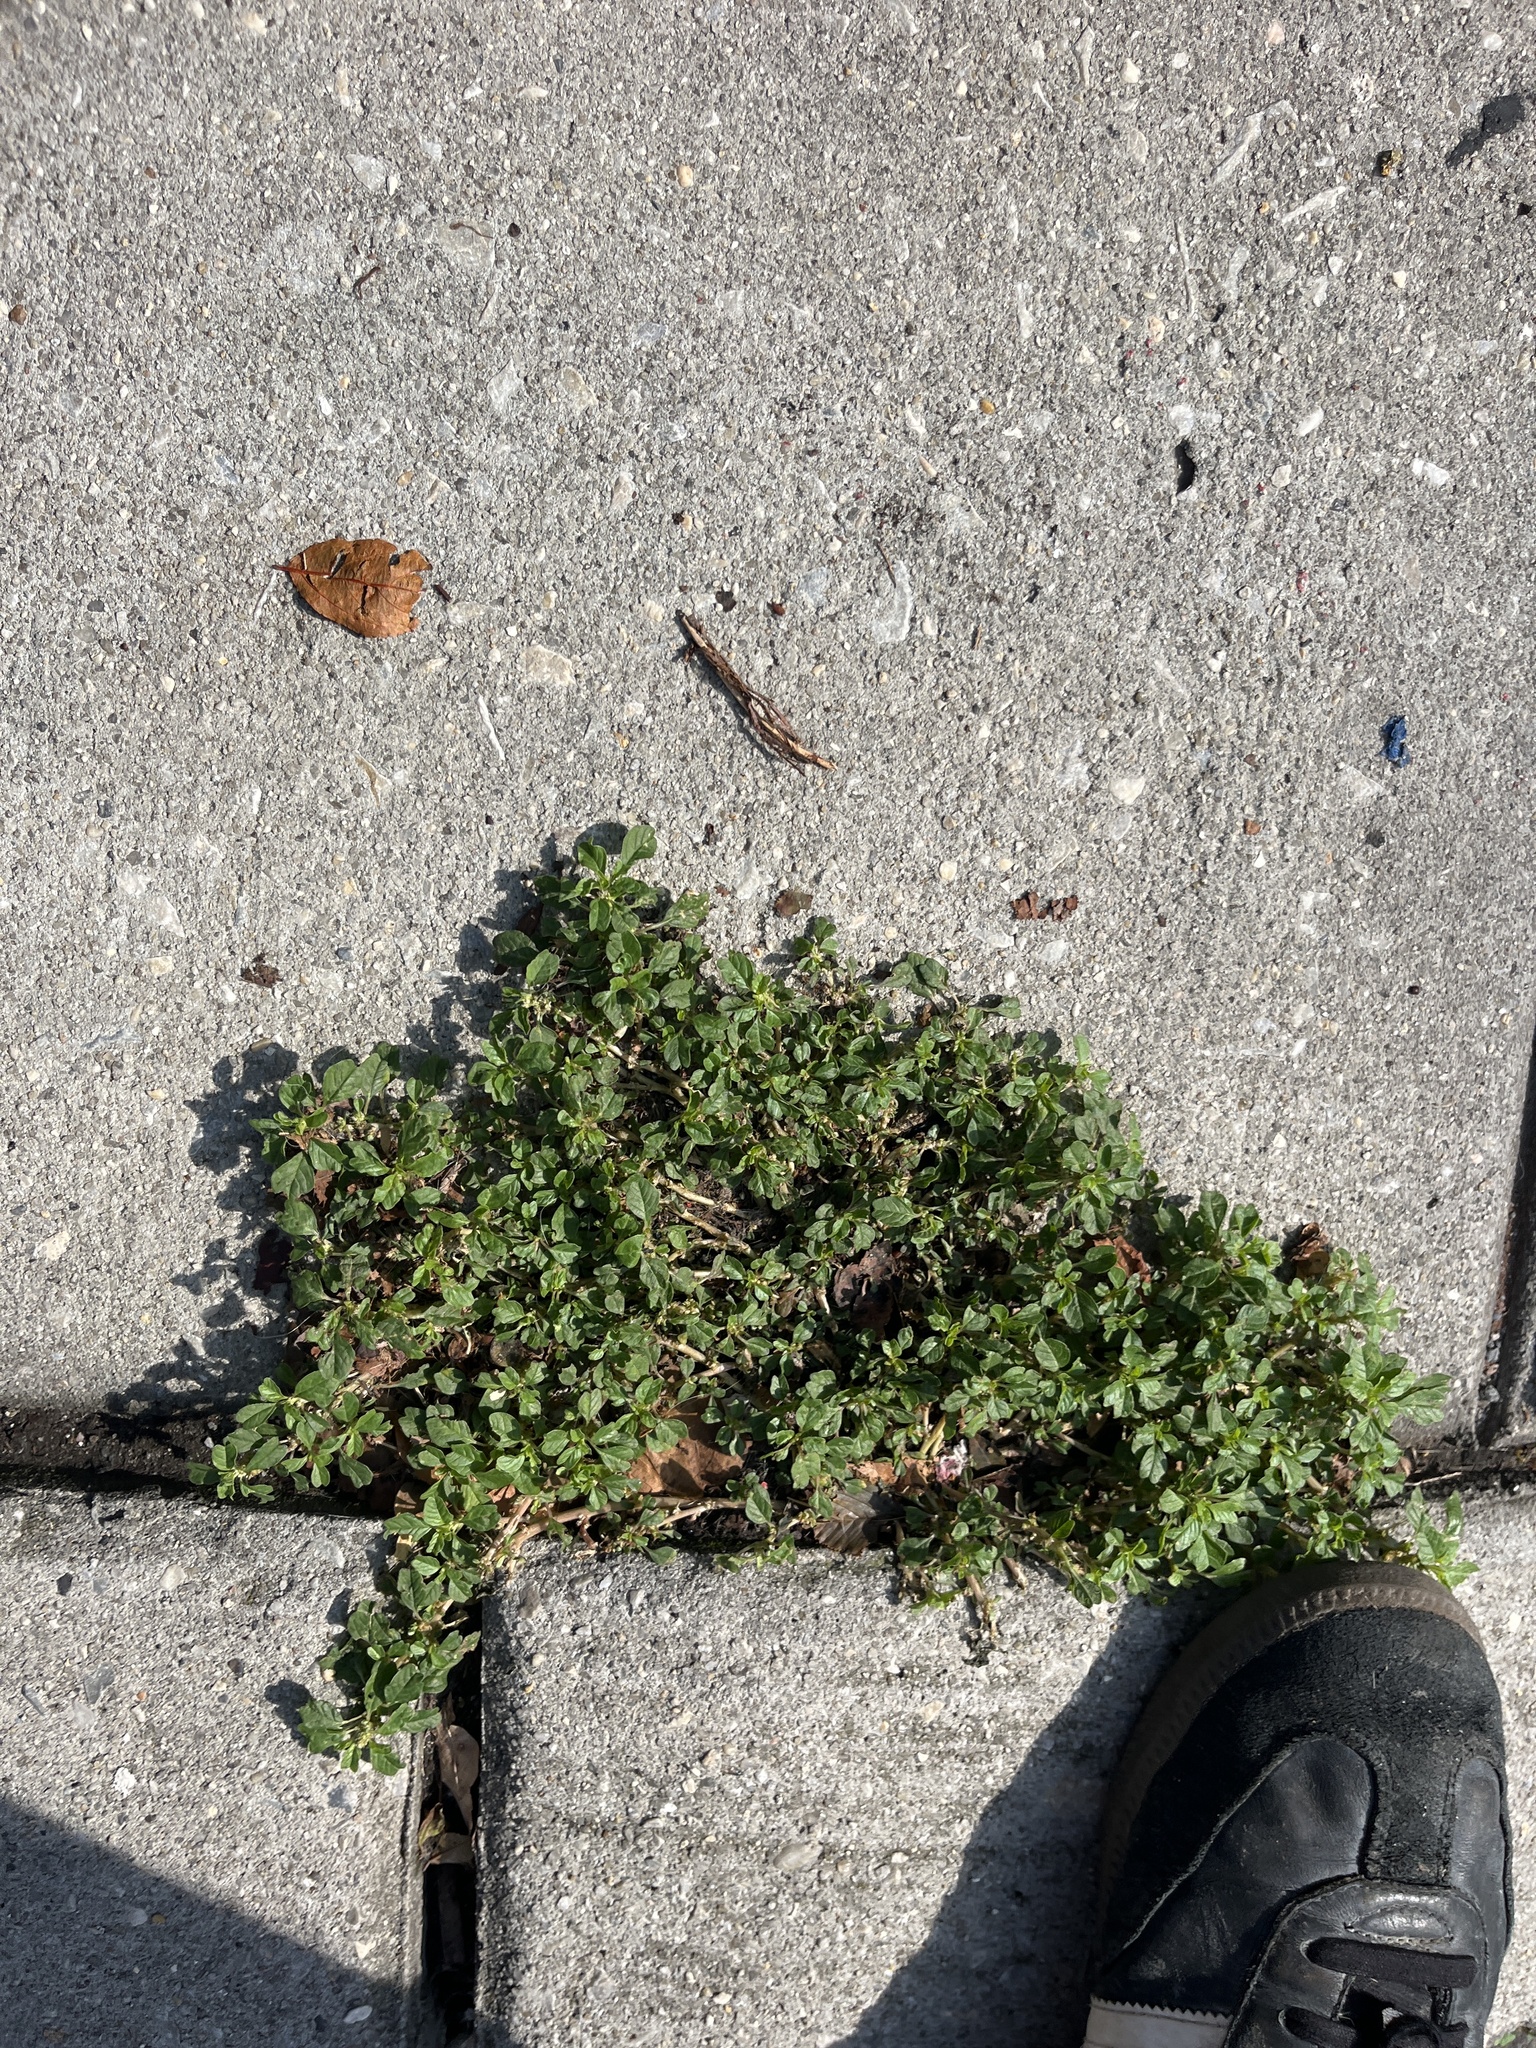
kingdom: Plantae
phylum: Tracheophyta
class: Magnoliopsida
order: Caryophyllales
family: Amaranthaceae
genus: Amaranthus
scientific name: Amaranthus blitum
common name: Purple amaranth
